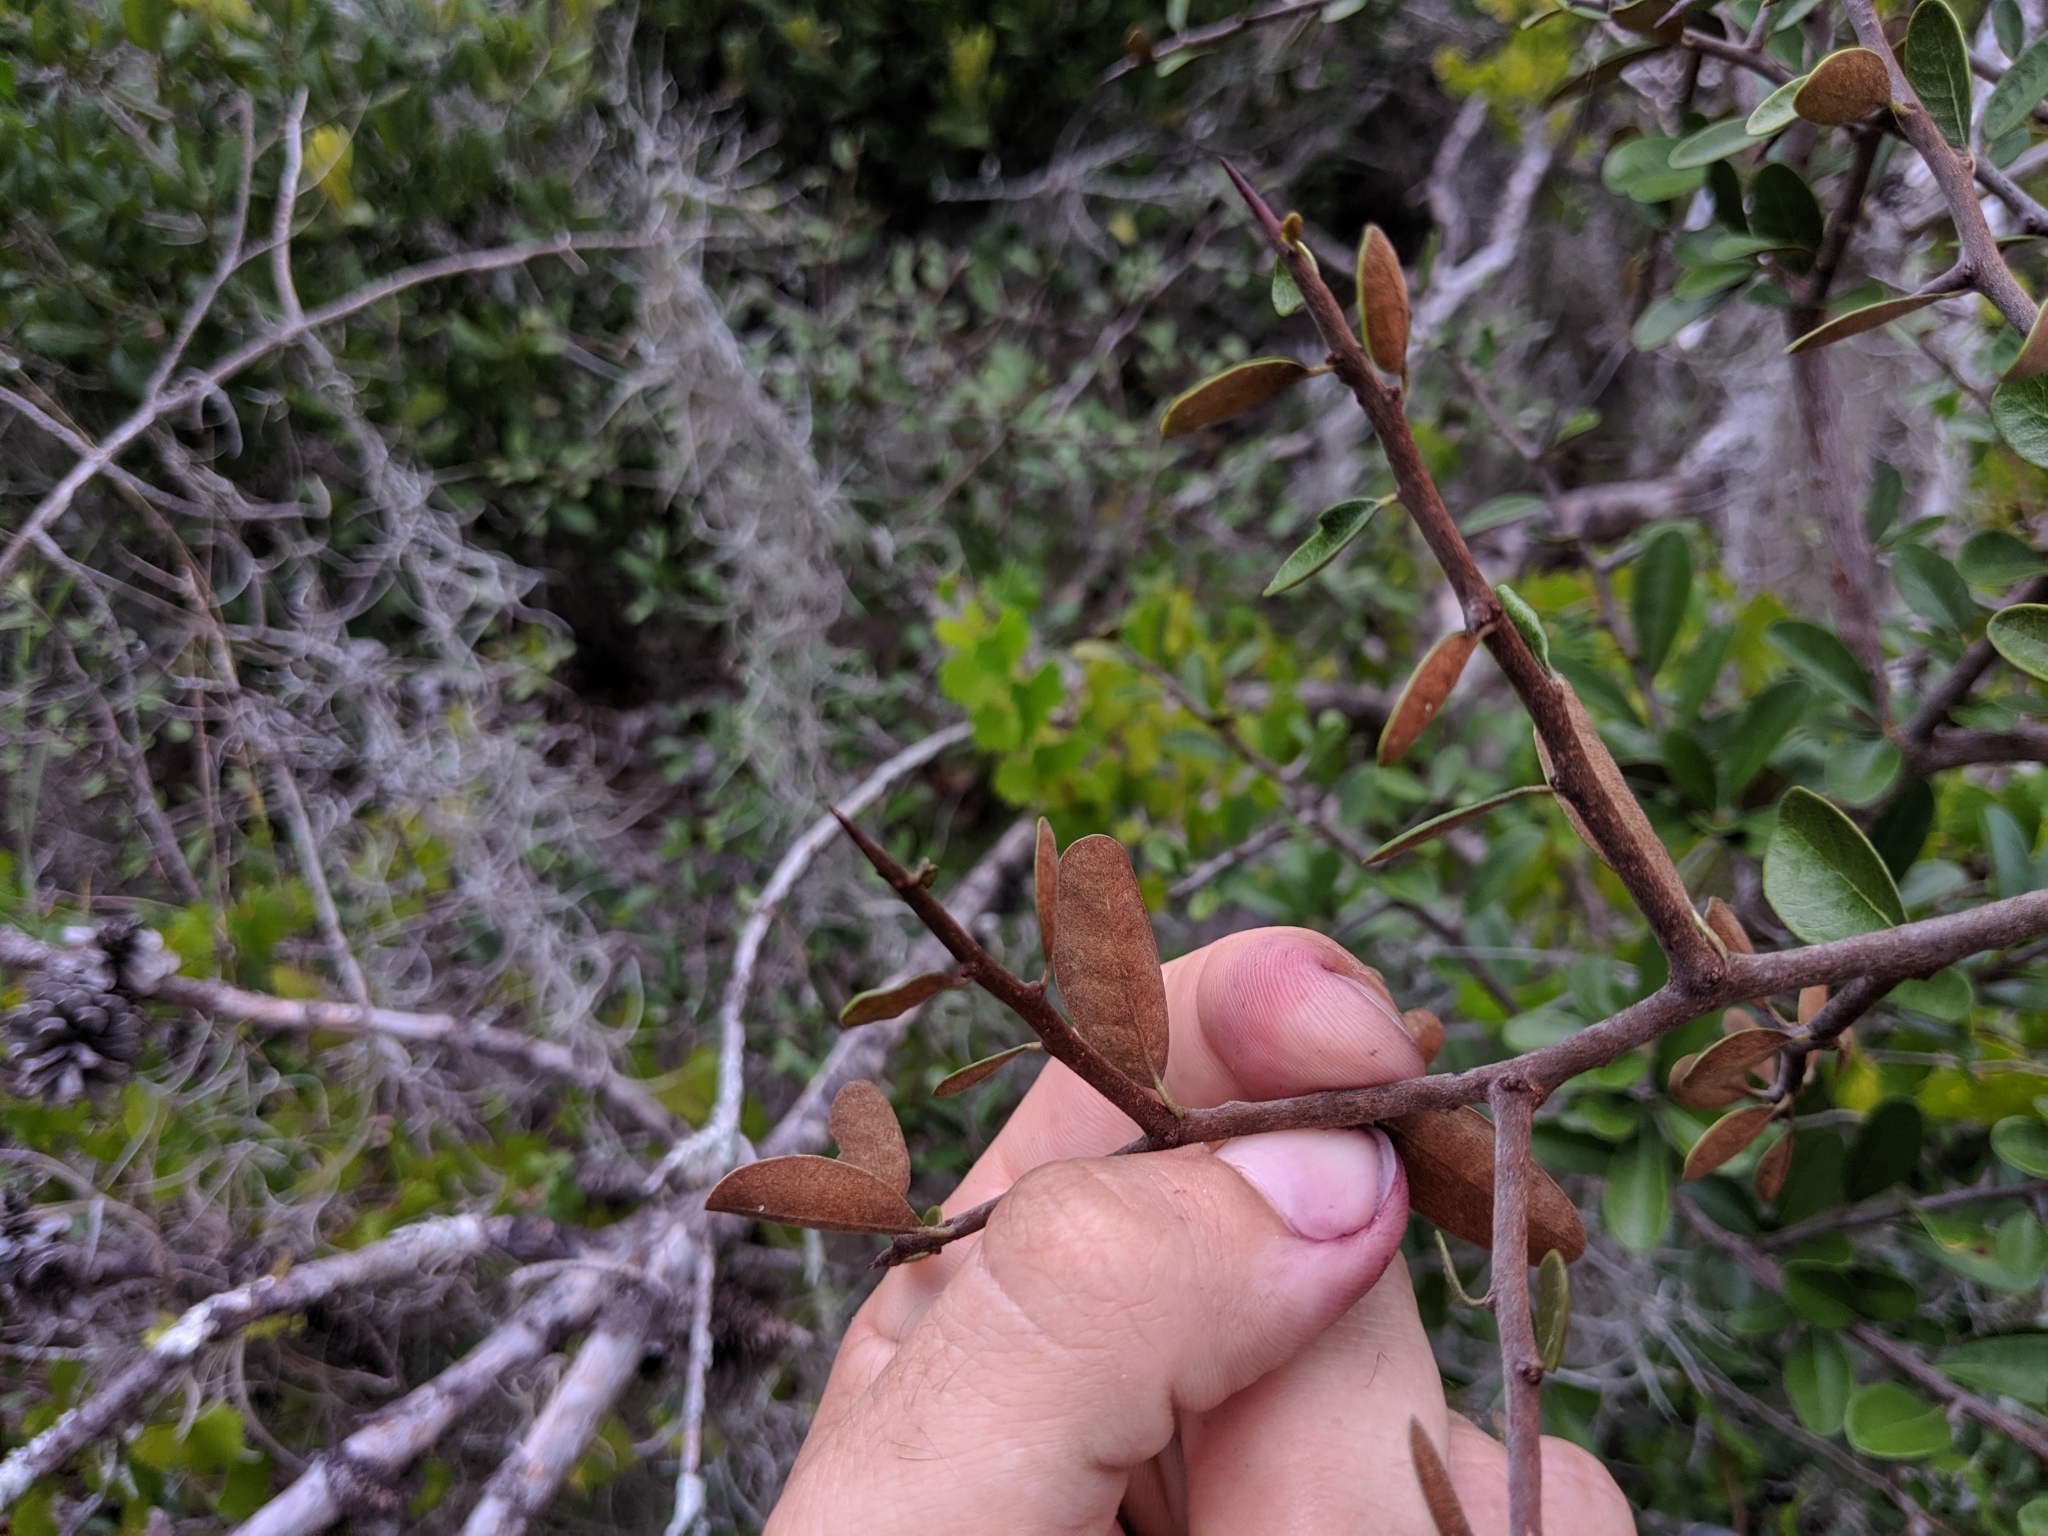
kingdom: Plantae
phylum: Tracheophyta
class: Magnoliopsida
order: Ericales
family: Sapotaceae
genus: Sideroxylon
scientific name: Sideroxylon tenax
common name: Tough-buckthorn
